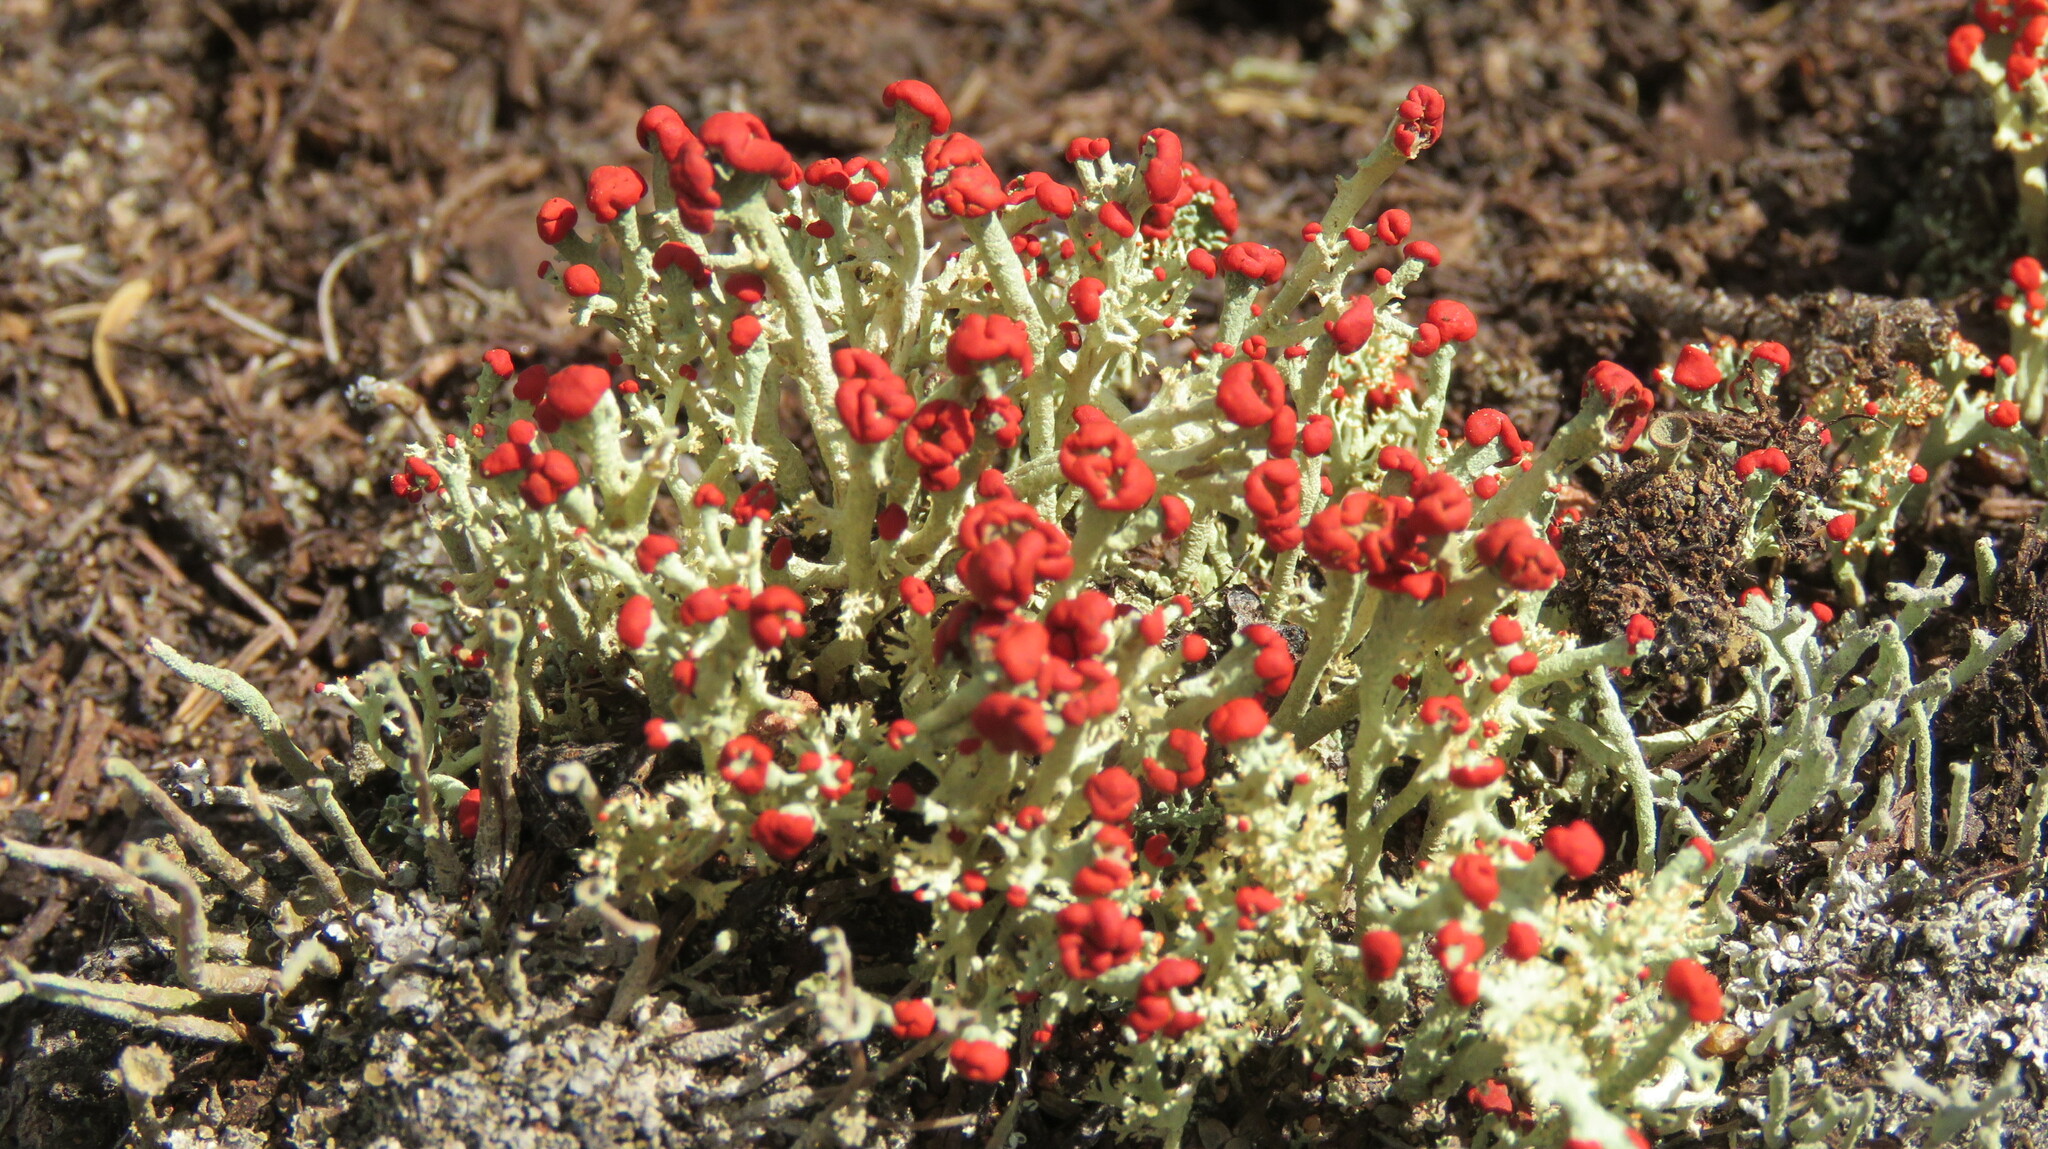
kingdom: Fungi
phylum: Ascomycota
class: Lecanoromycetes
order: Lecanorales
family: Cladoniaceae
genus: Cladonia
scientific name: Cladonia cristatella
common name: British soldier lichen
